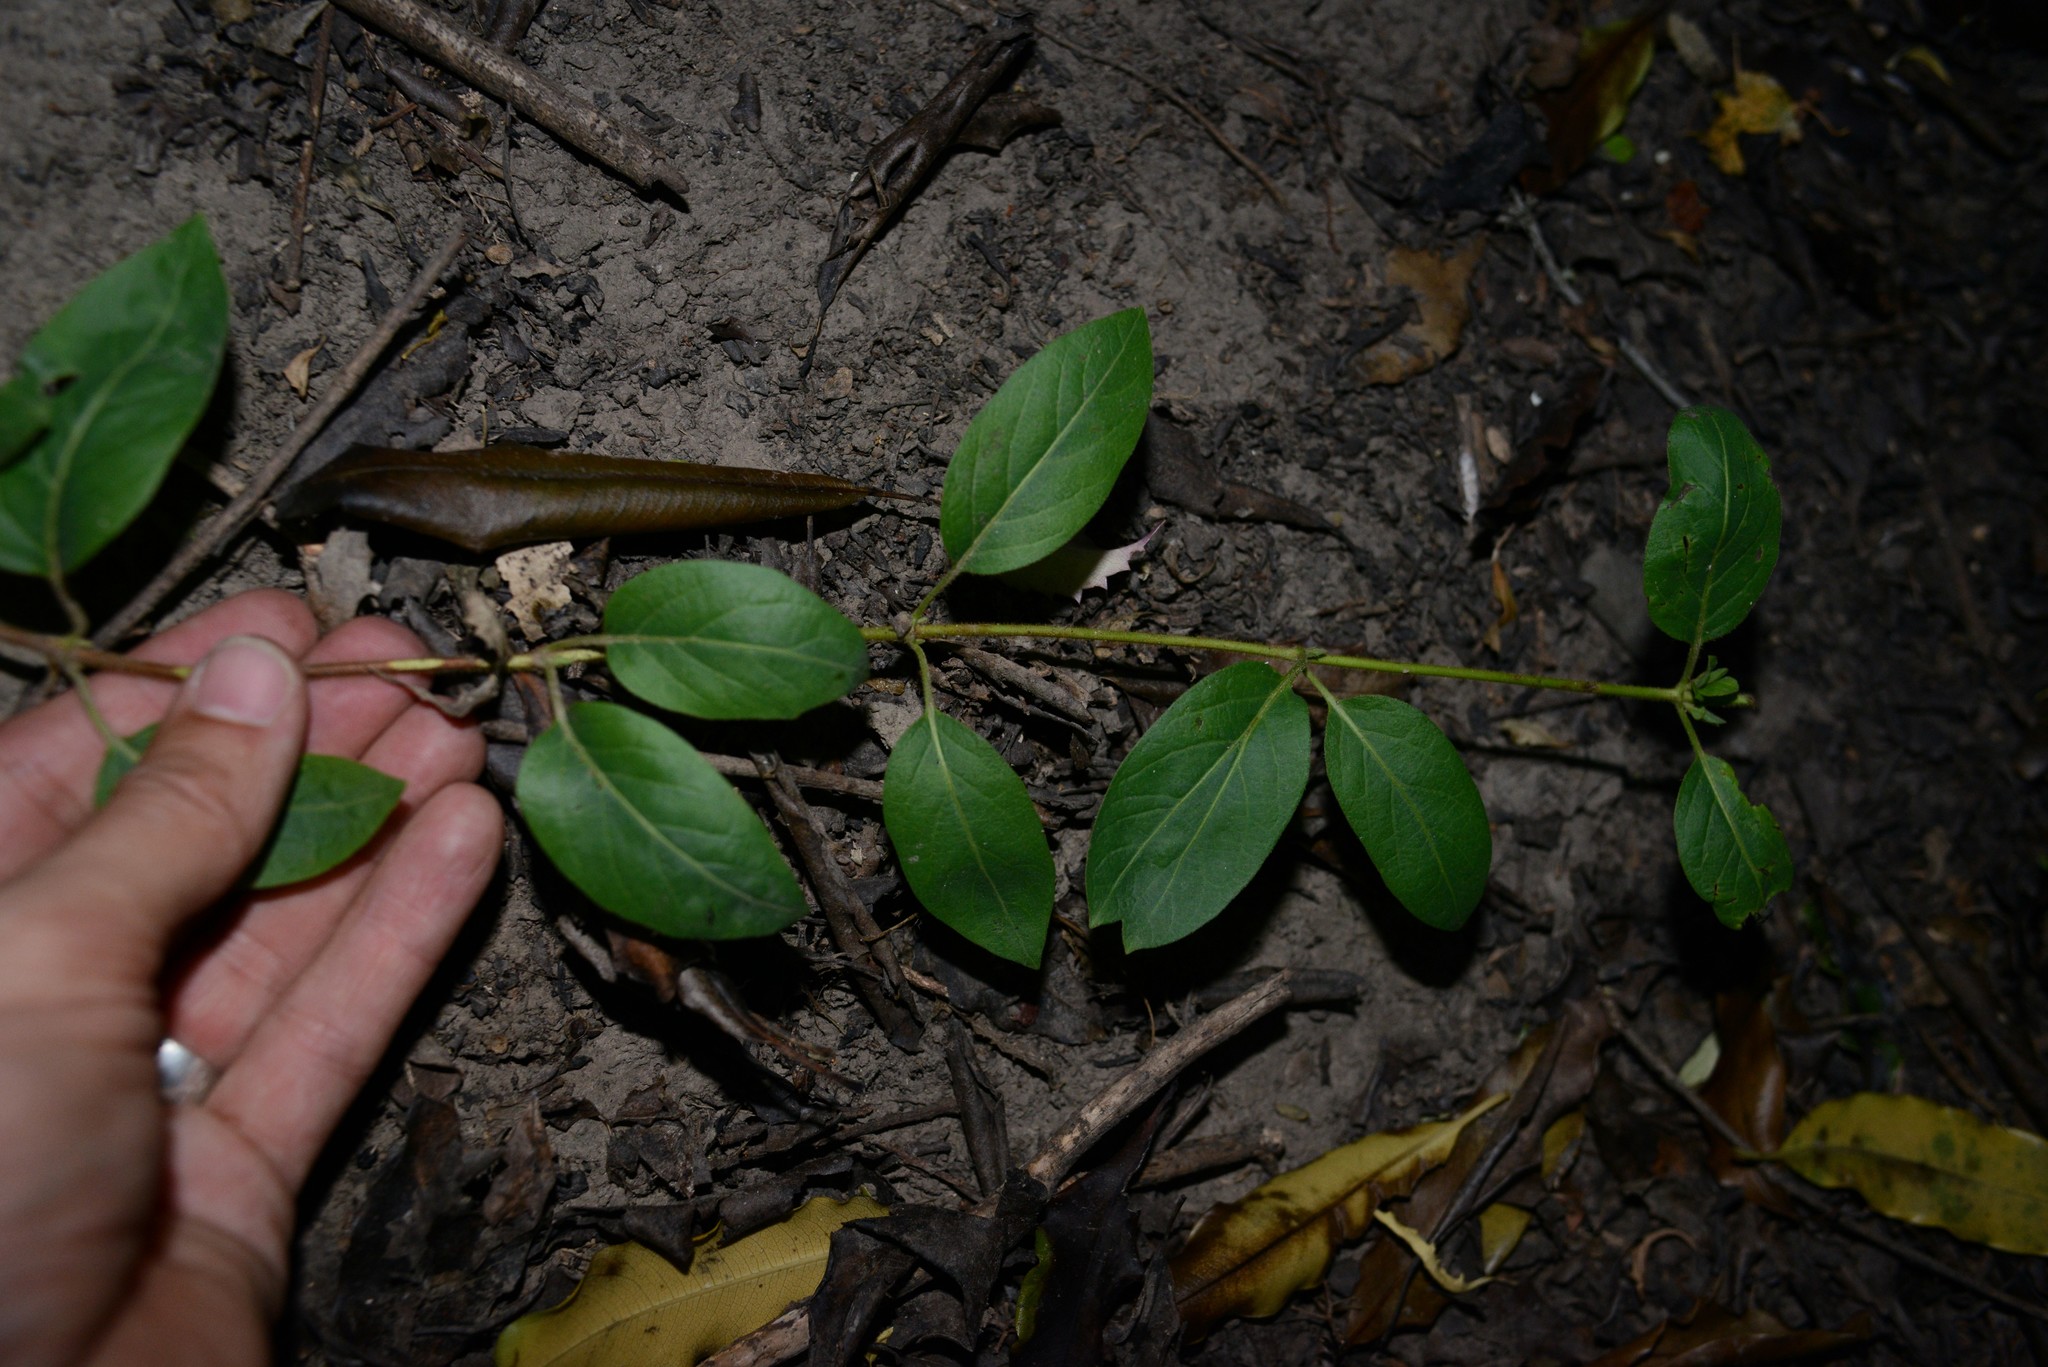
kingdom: Plantae
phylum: Tracheophyta
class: Magnoliopsida
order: Dipsacales
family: Caprifoliaceae
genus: Lonicera
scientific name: Lonicera japonica
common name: Japanese honeysuckle
